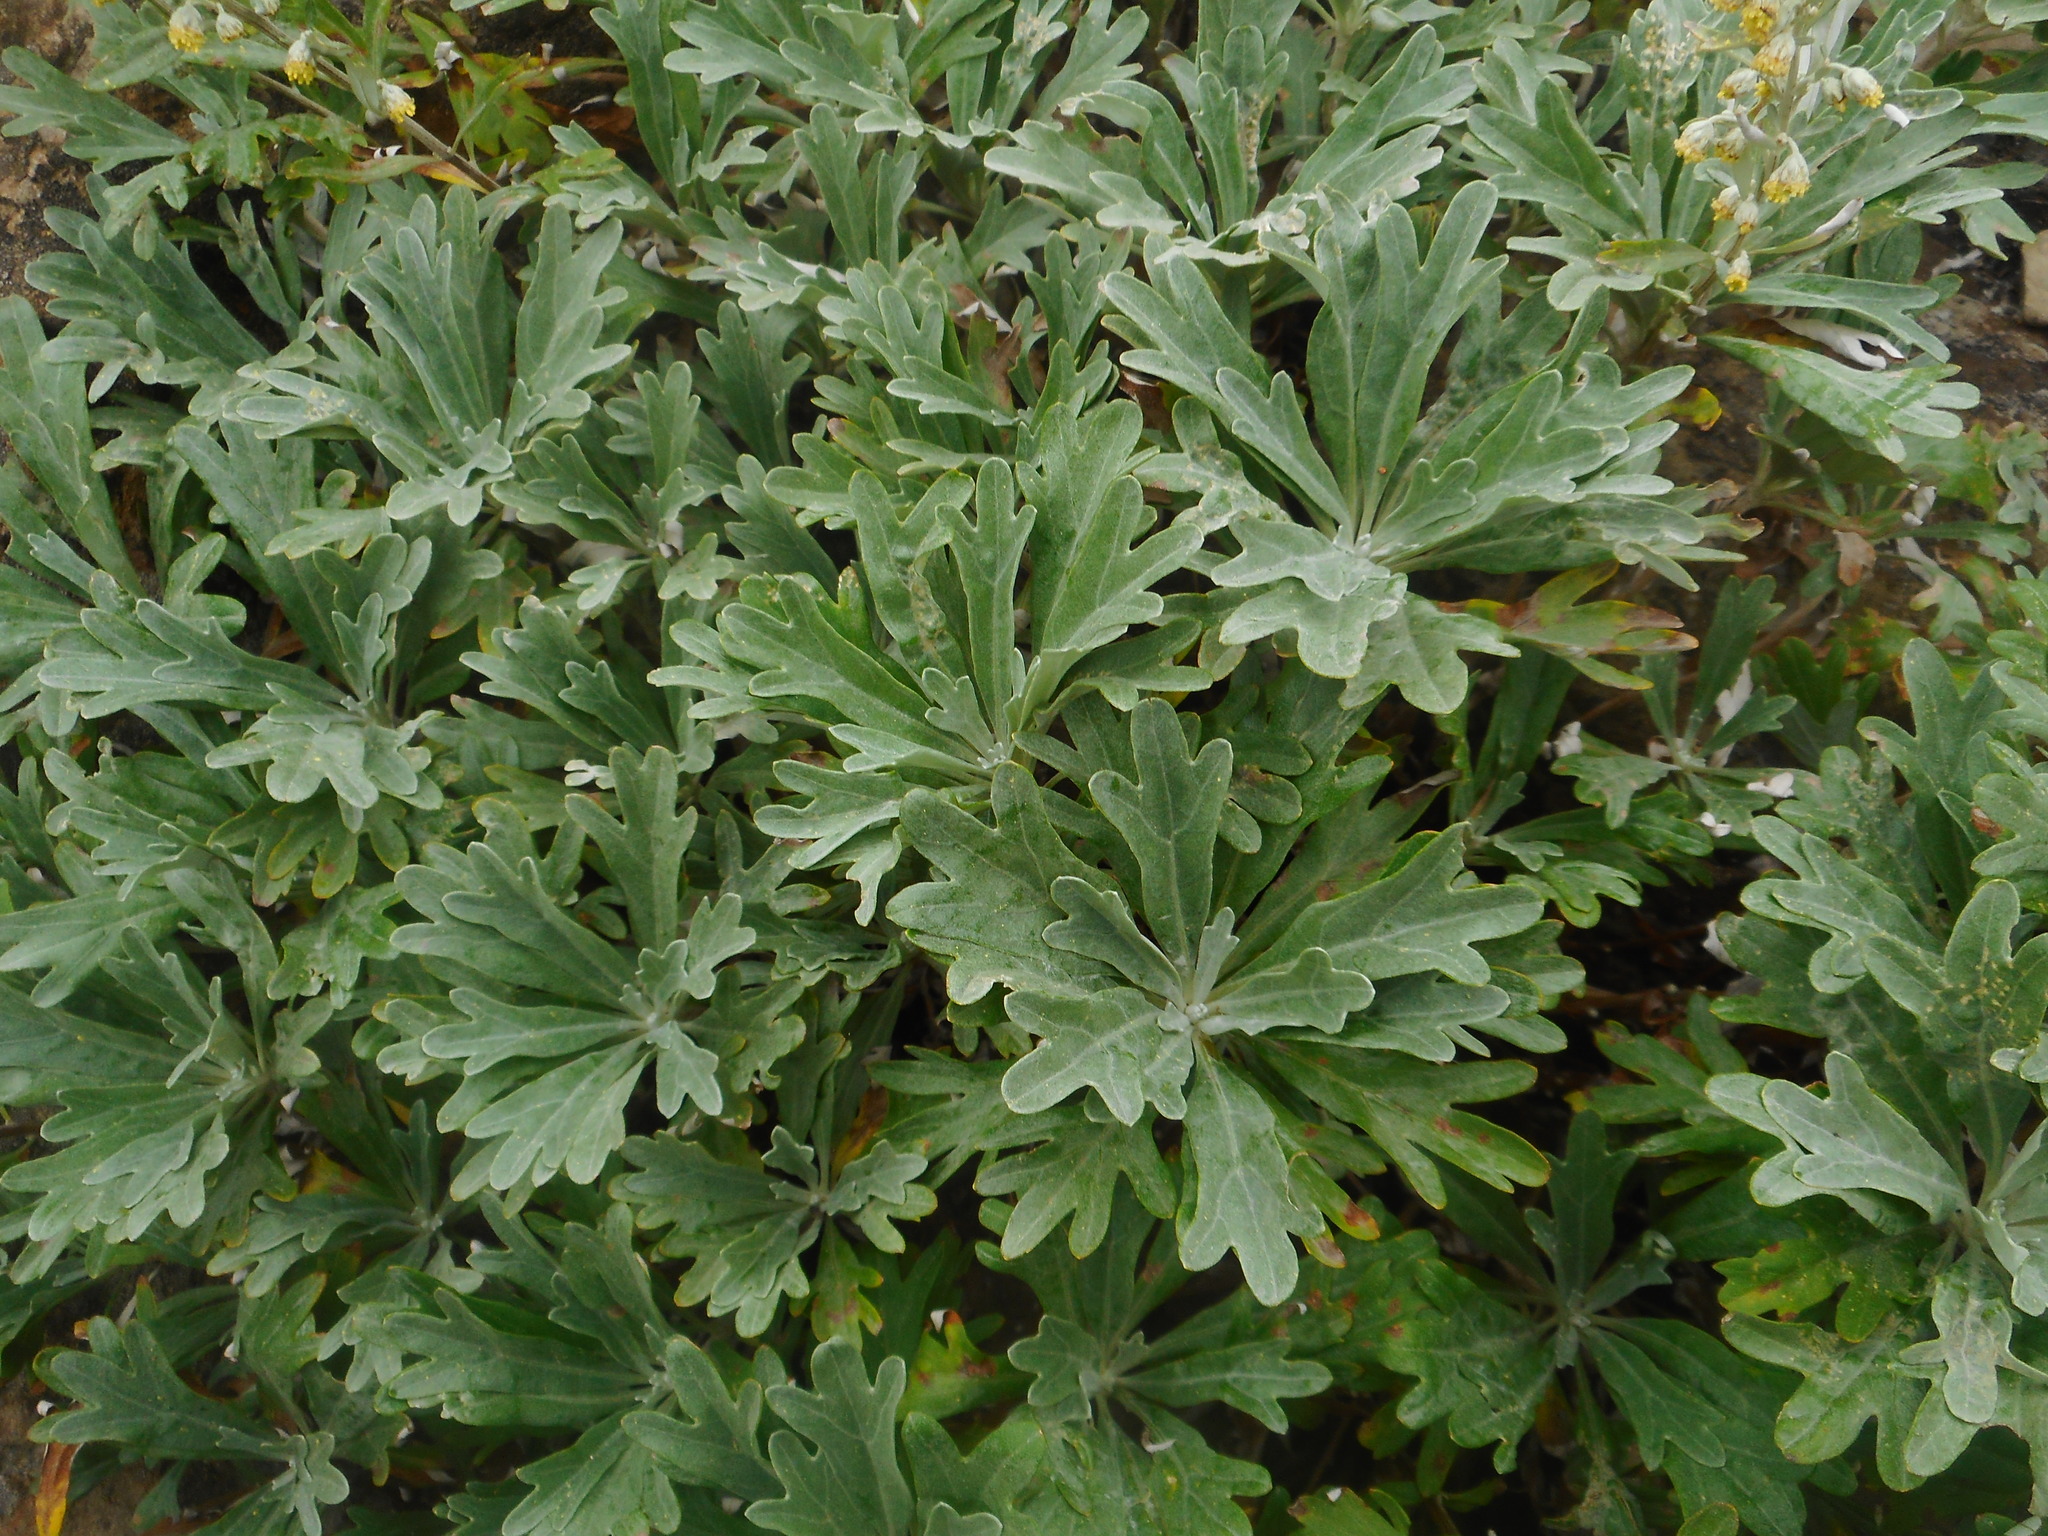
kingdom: Plantae
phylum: Tracheophyta
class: Magnoliopsida
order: Asterales
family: Asteraceae
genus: Artemisia
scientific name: Artemisia lagocephala
